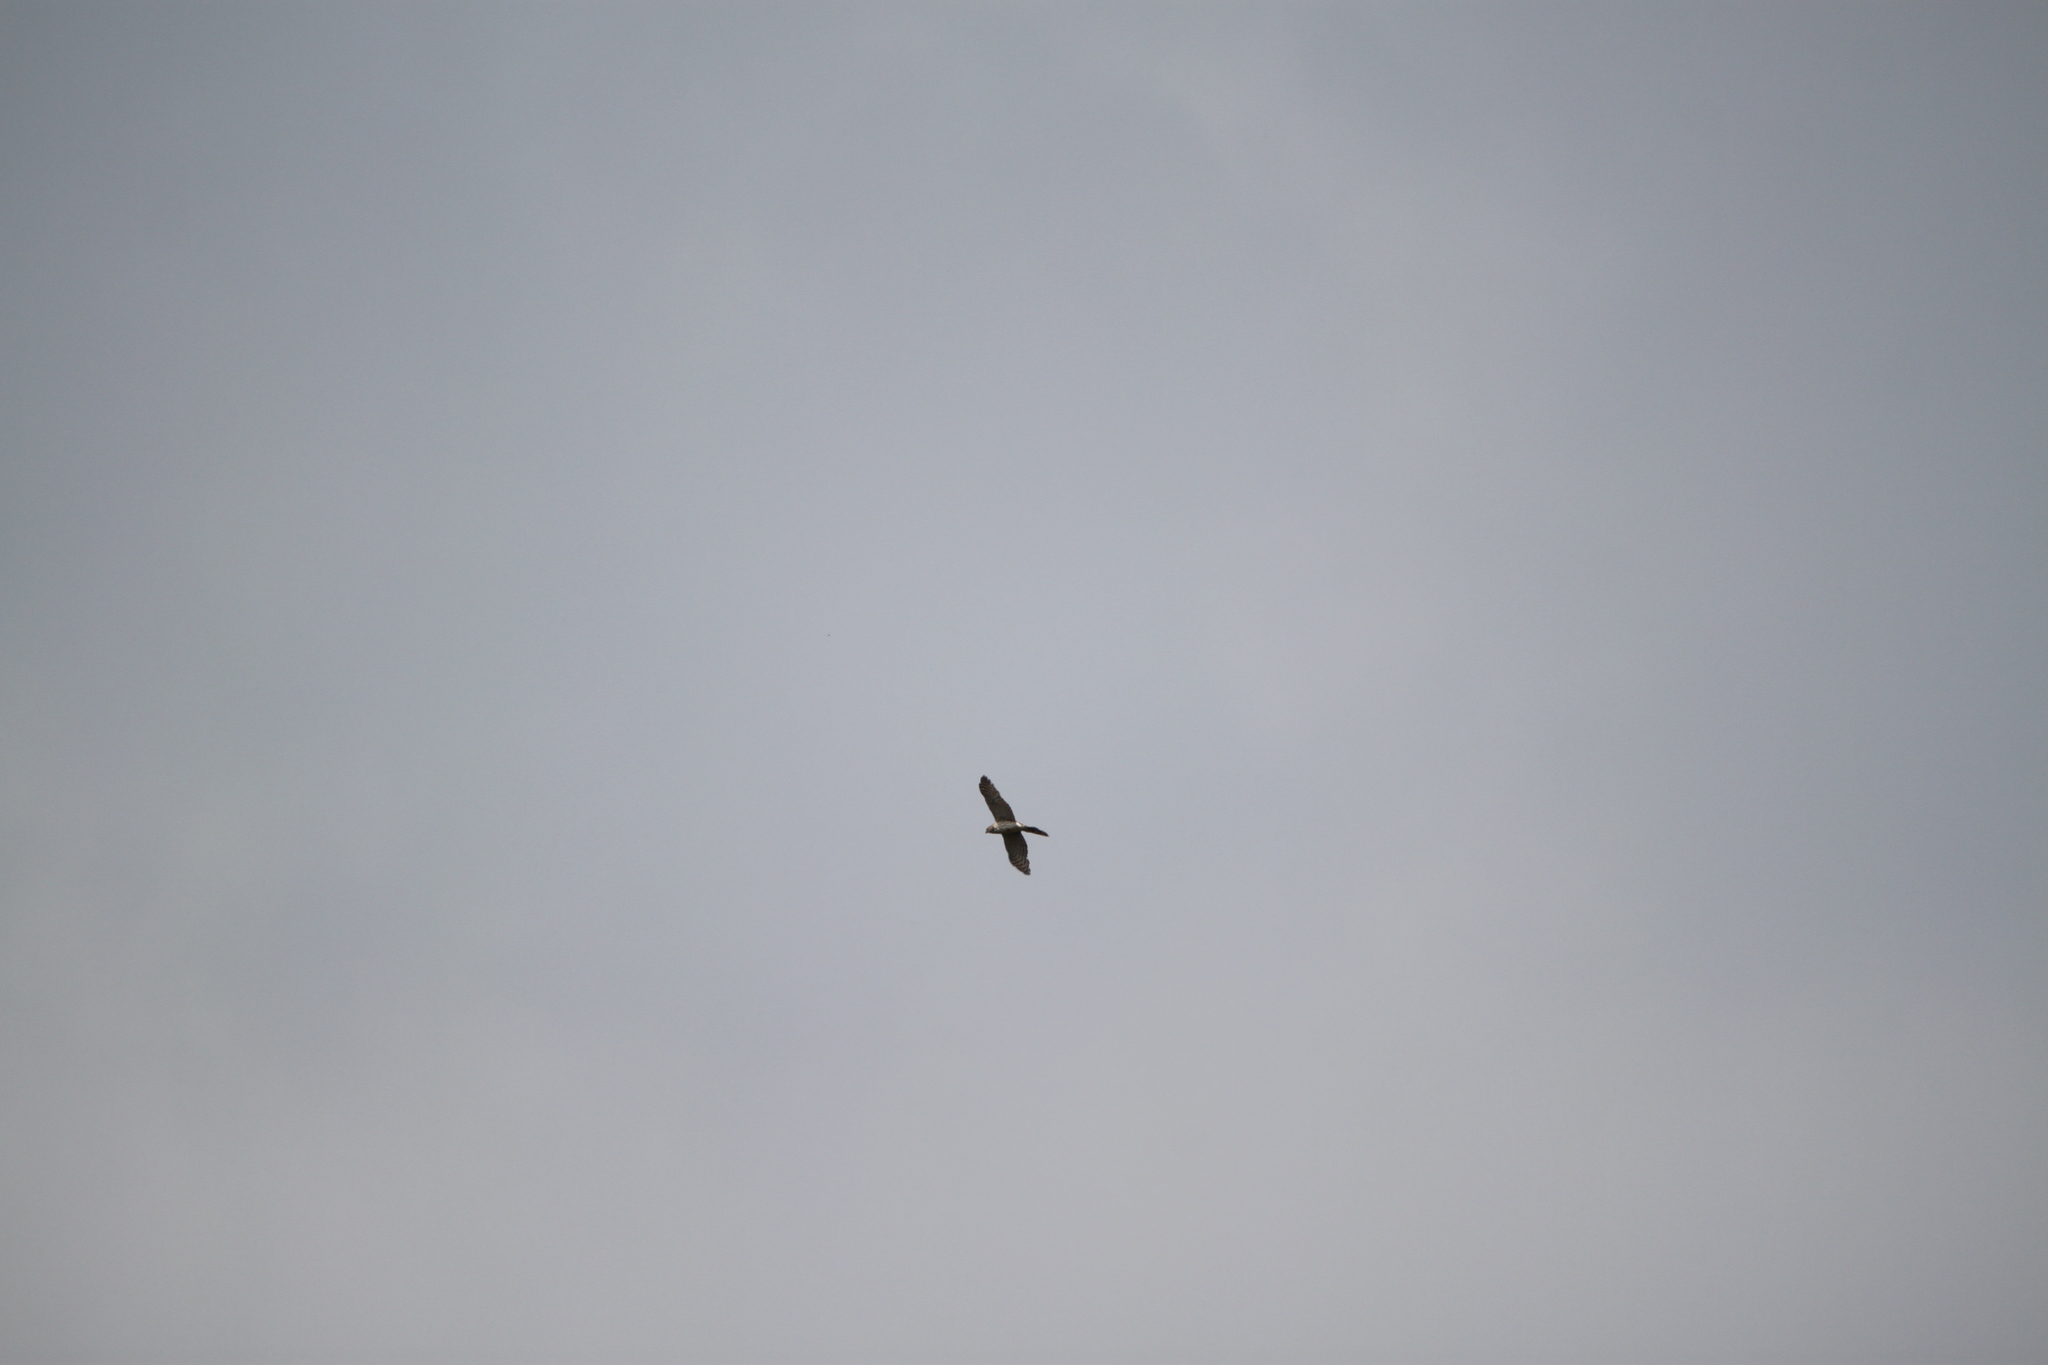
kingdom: Animalia
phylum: Chordata
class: Aves
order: Accipitriformes
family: Accipitridae
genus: Accipiter
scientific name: Accipiter cooperii
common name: Cooper's hawk
